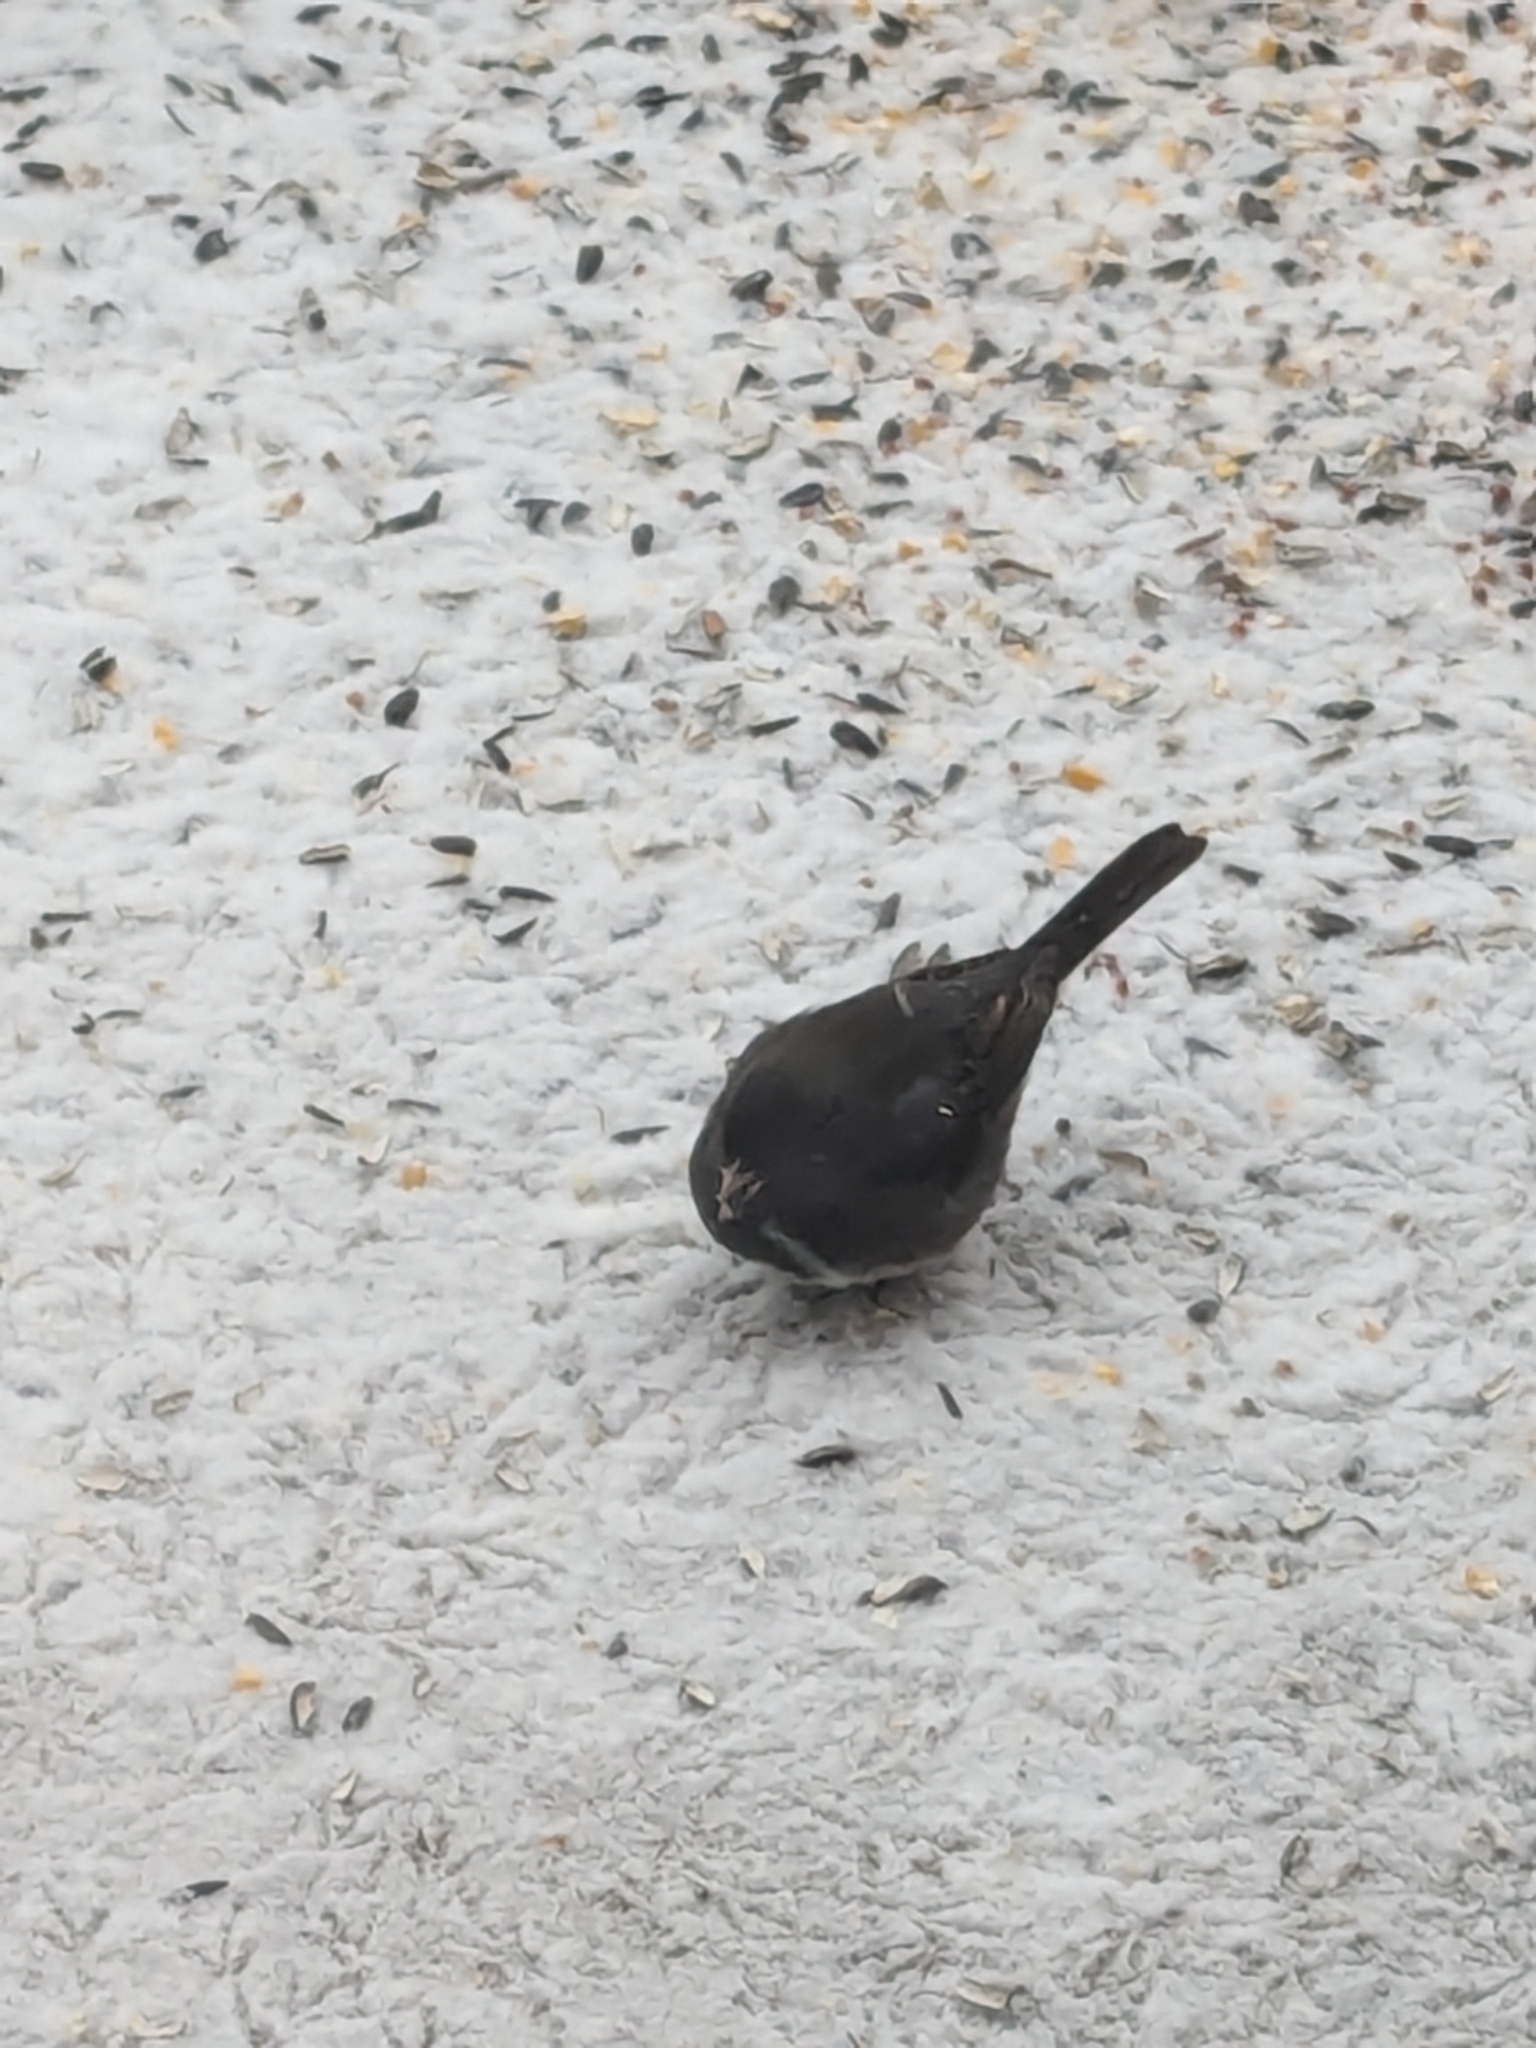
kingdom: Animalia
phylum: Chordata
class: Aves
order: Passeriformes
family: Passerellidae
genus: Junco
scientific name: Junco hyemalis
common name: Dark-eyed junco
